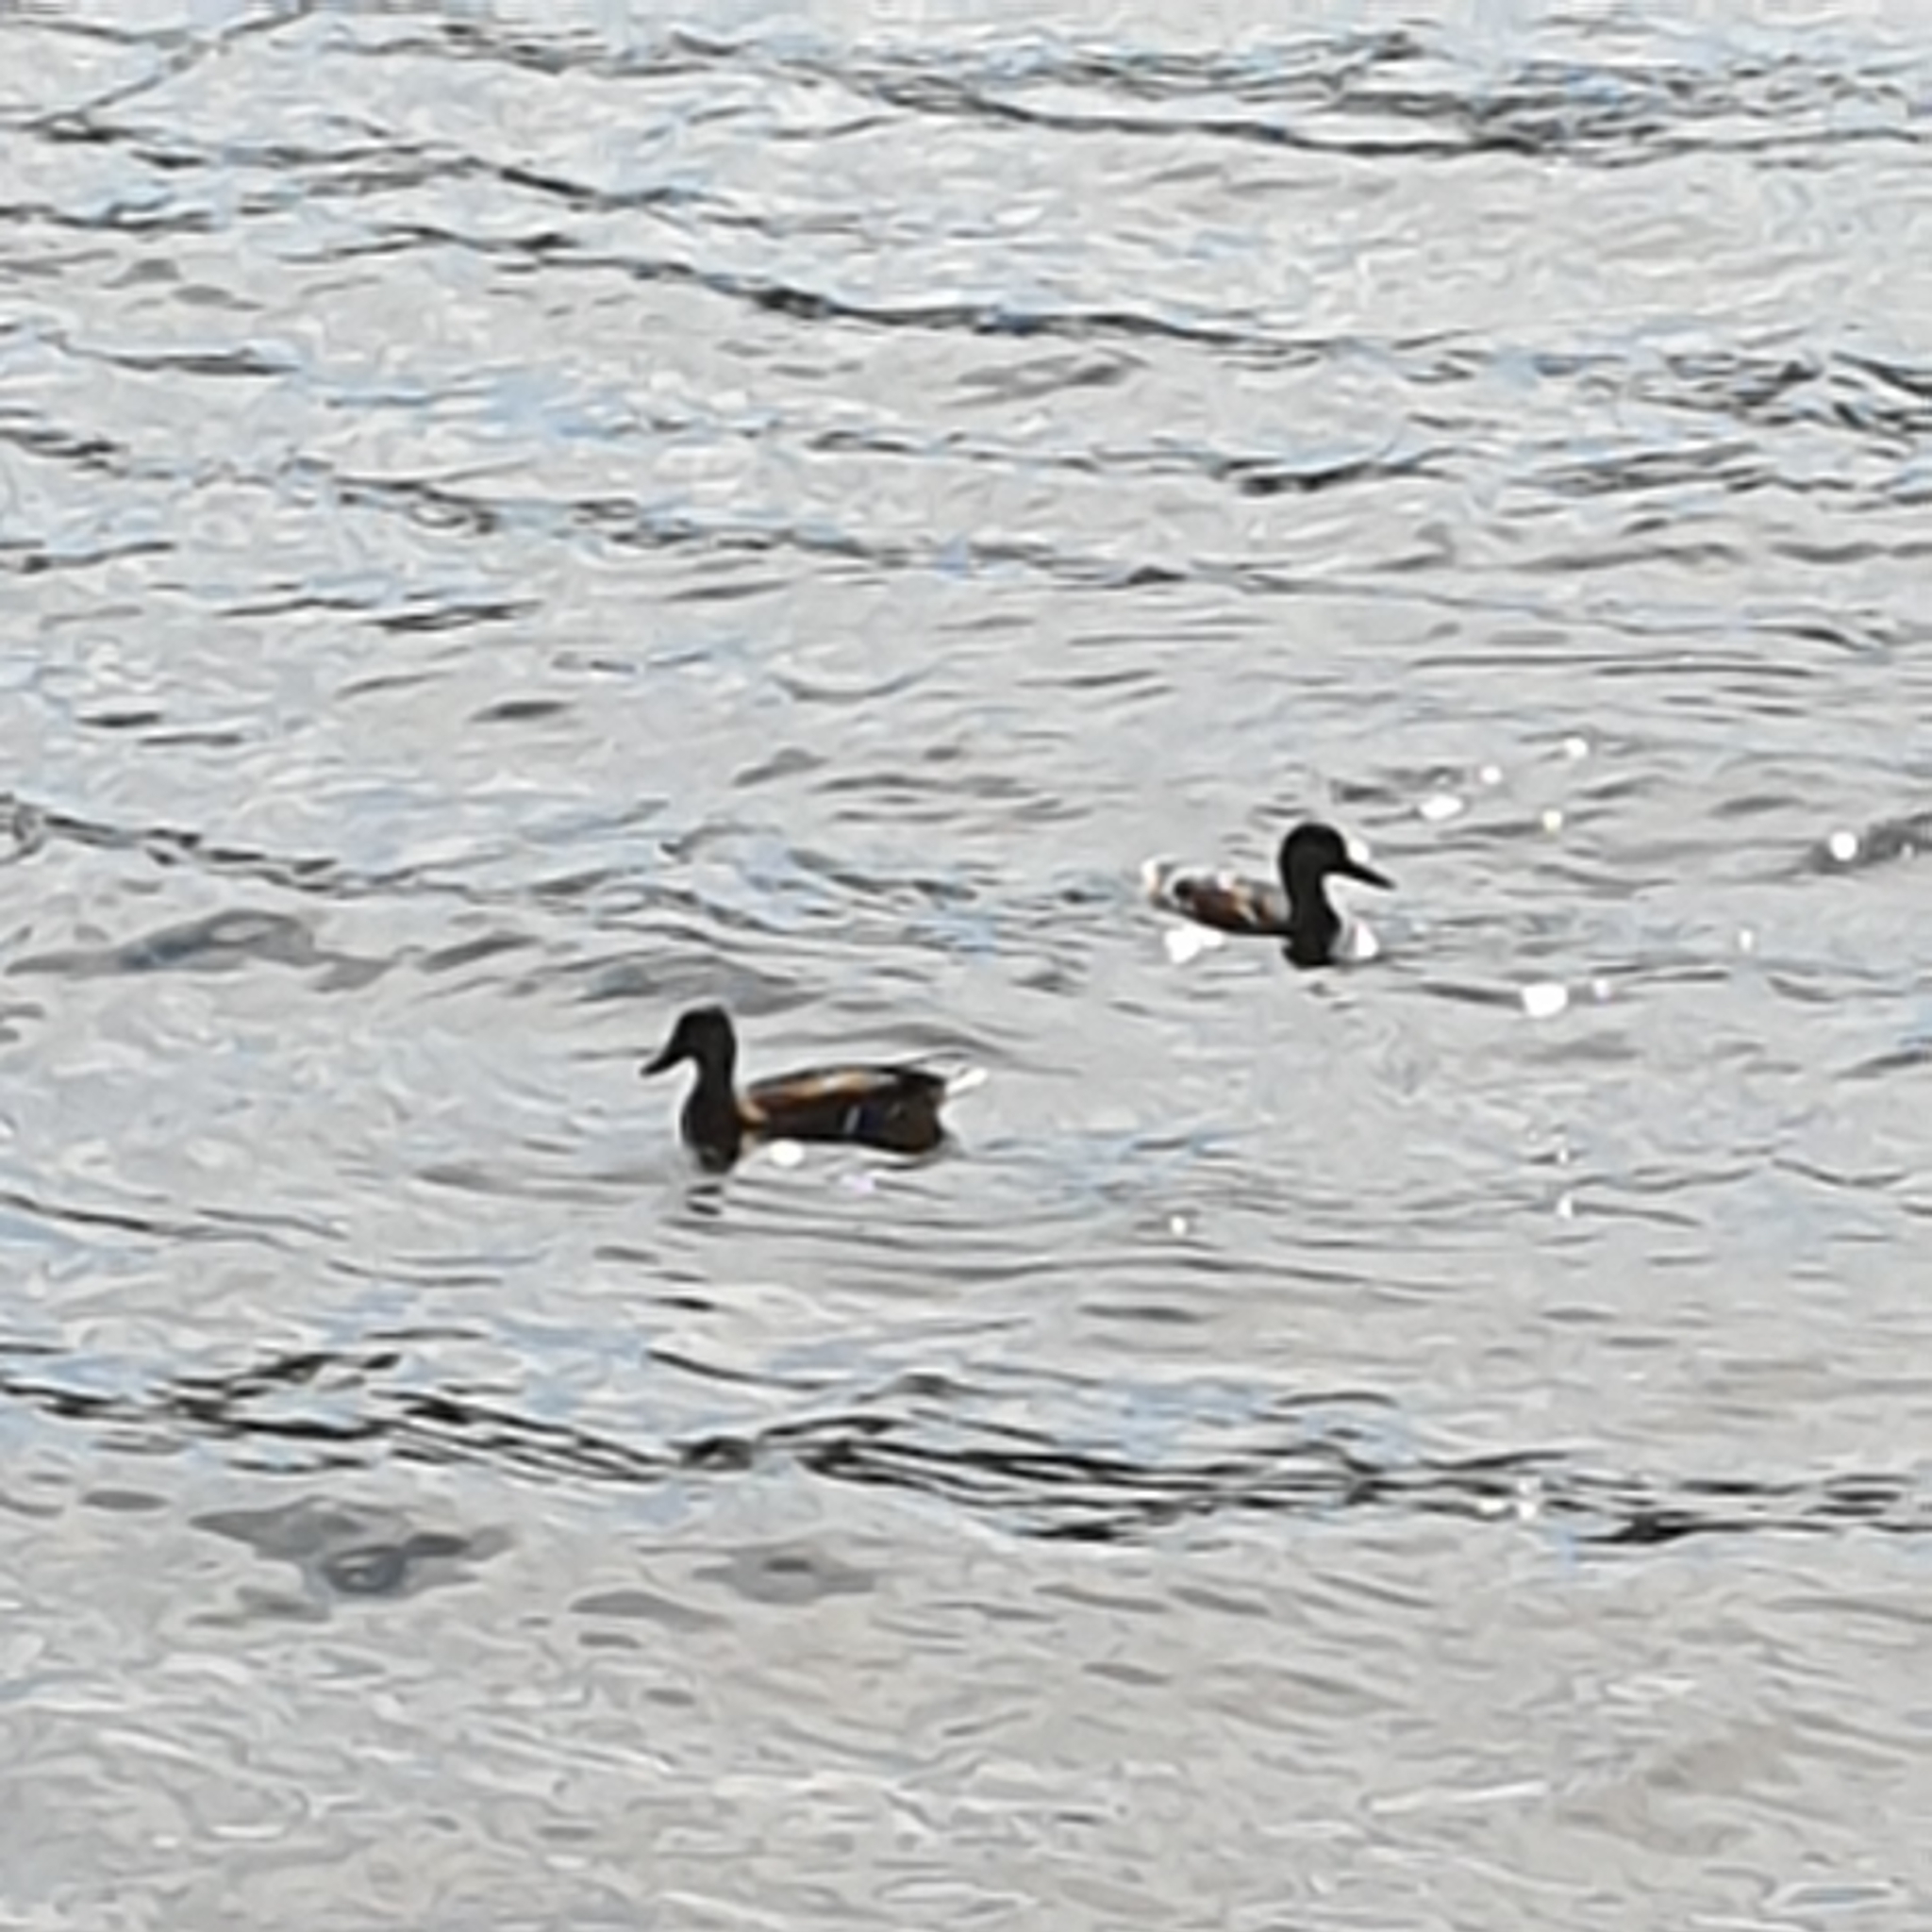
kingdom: Animalia
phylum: Chordata
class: Aves
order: Anseriformes
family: Anatidae
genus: Anas
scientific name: Anas platyrhynchos
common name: Mallard
